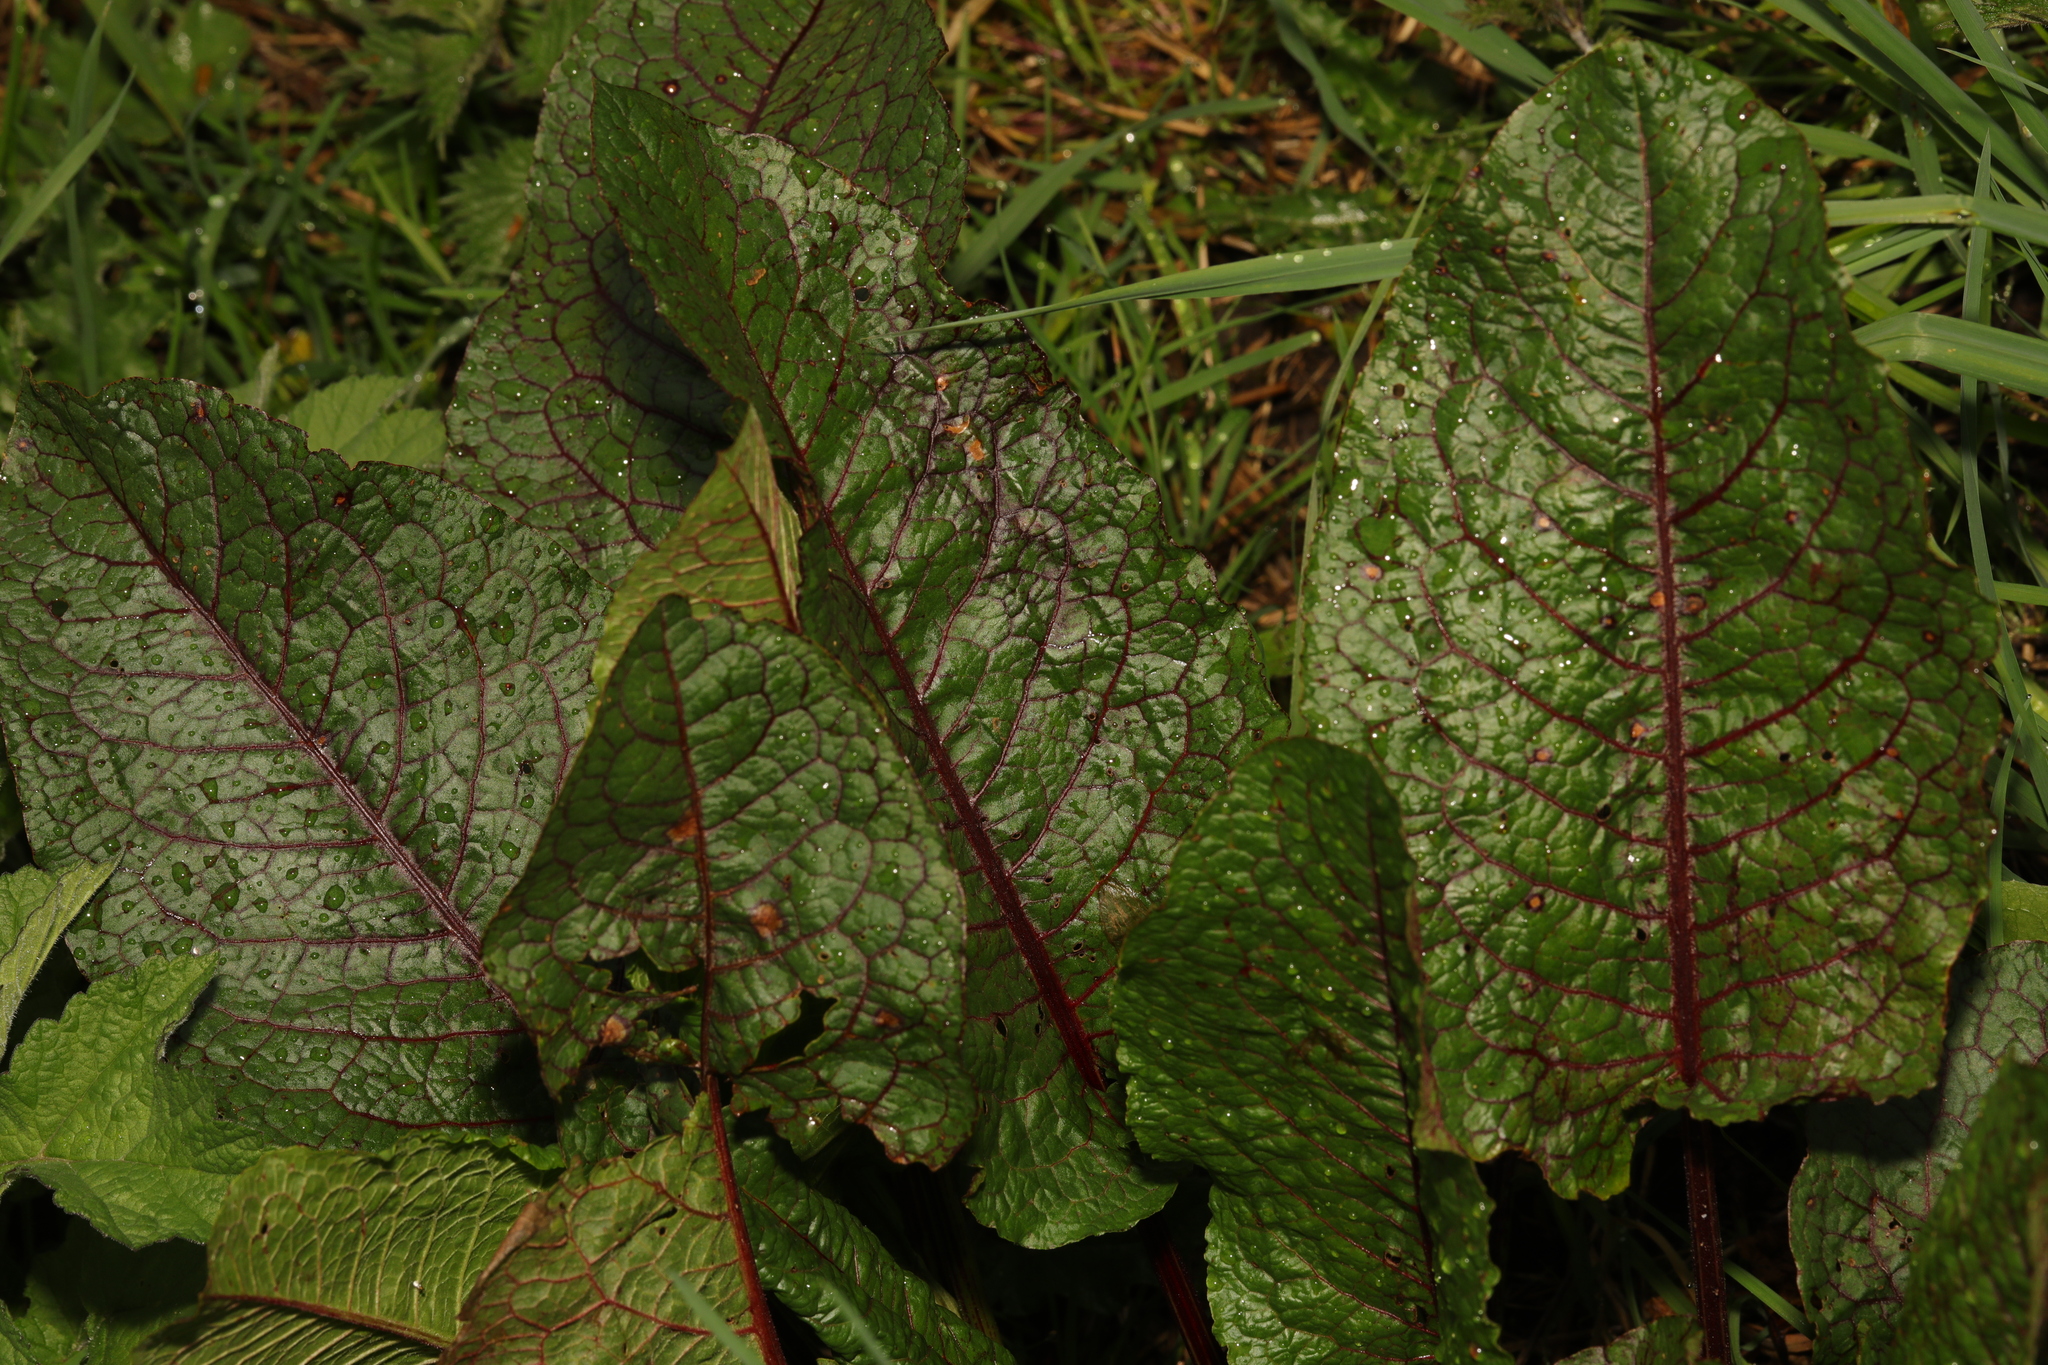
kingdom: Plantae
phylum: Tracheophyta
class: Magnoliopsida
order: Caryophyllales
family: Polygonaceae
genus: Rumex
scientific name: Rumex sanguineus
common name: Wood dock
